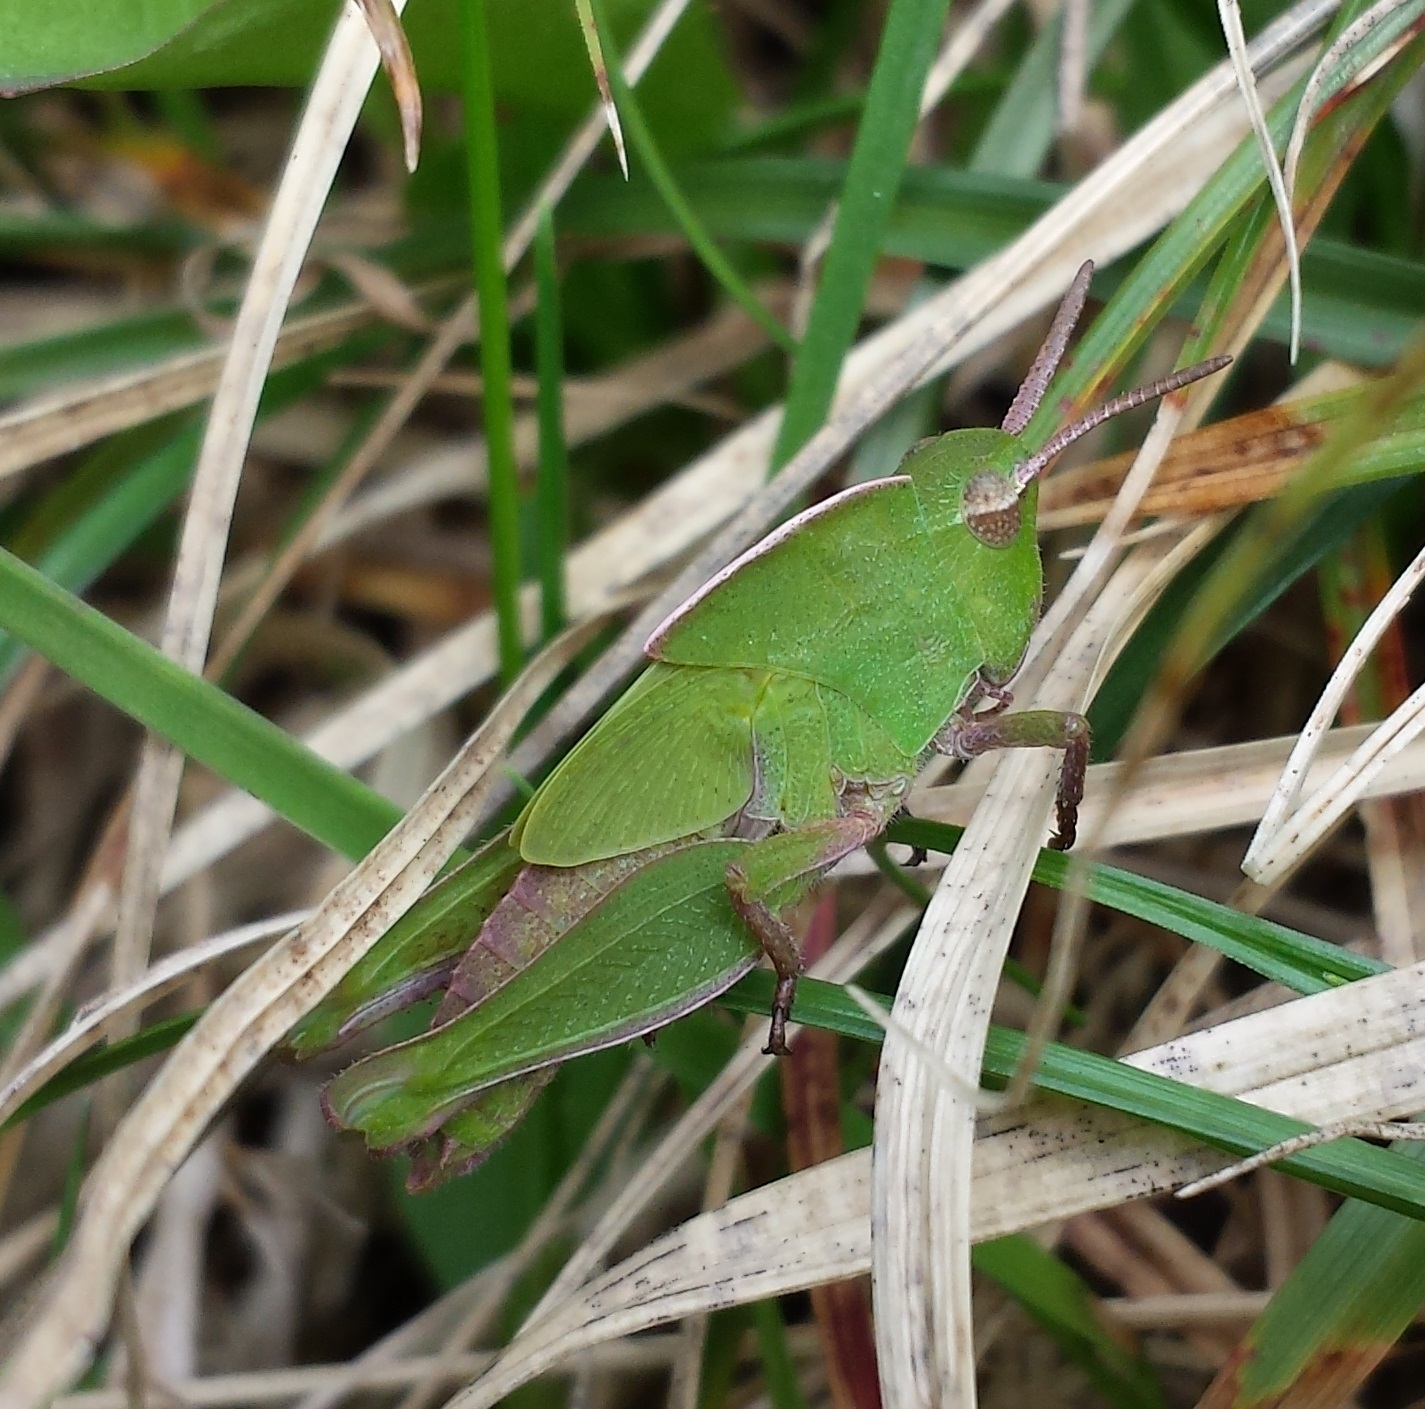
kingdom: Animalia
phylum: Arthropoda
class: Insecta
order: Orthoptera
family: Acrididae
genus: Chortophaga
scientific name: Chortophaga viridifasciata
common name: Green-striped grasshopper
